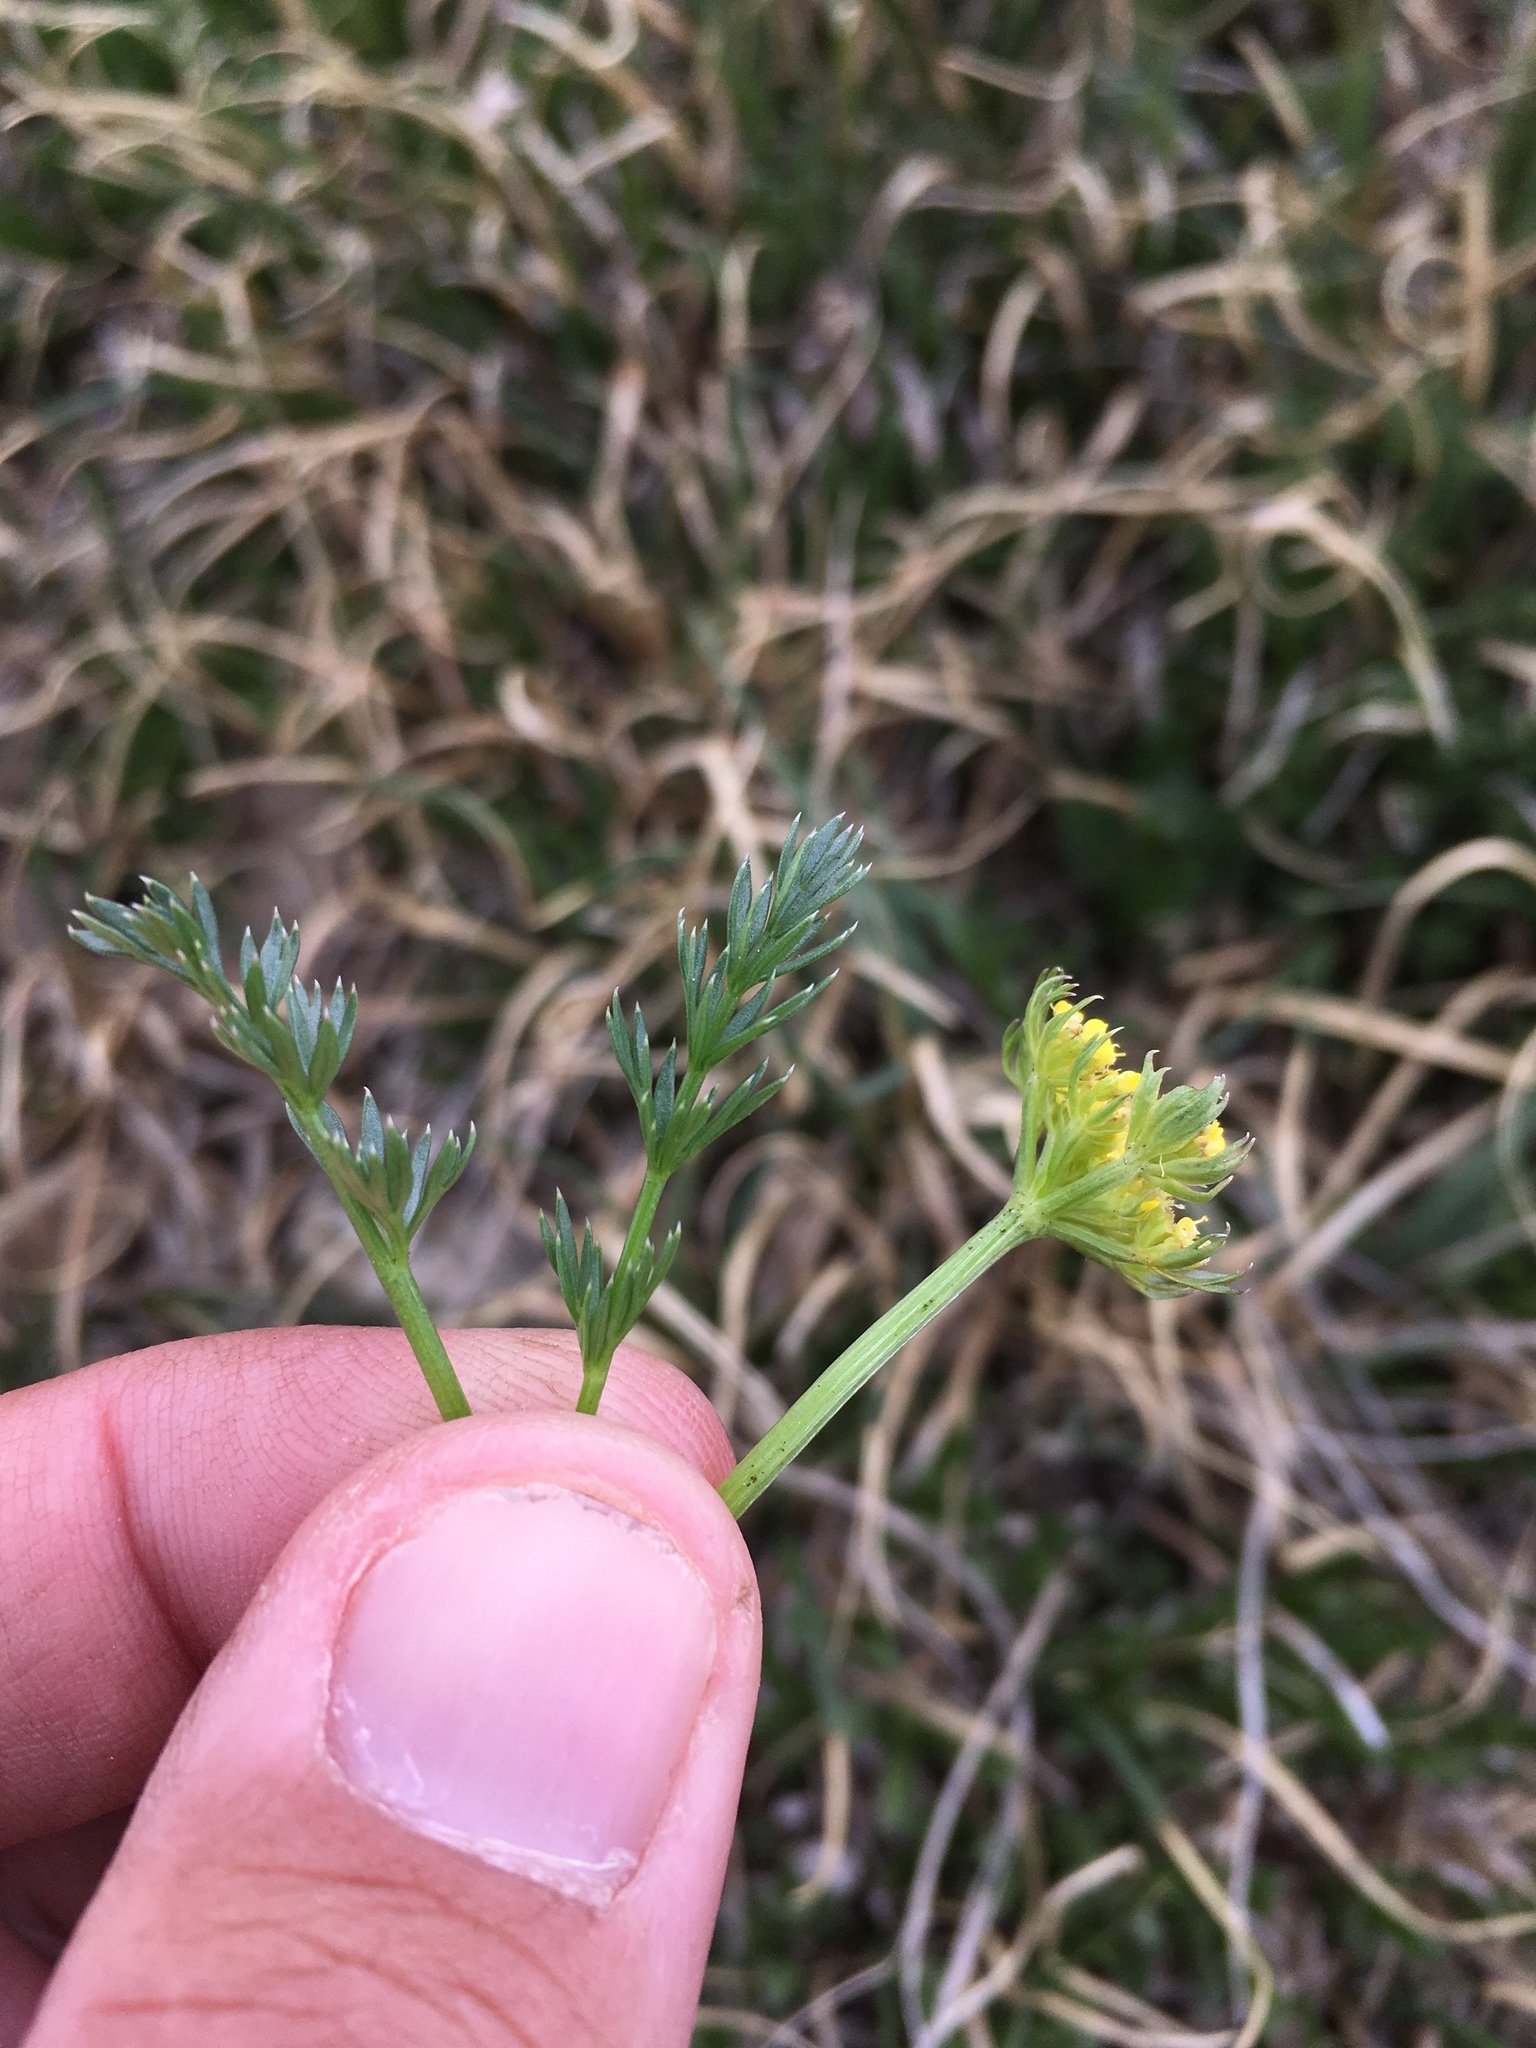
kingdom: Plantae
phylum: Tracheophyta
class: Magnoliopsida
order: Apiales
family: Apiaceae
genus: Oreoxis
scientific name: Oreoxis bakeri
